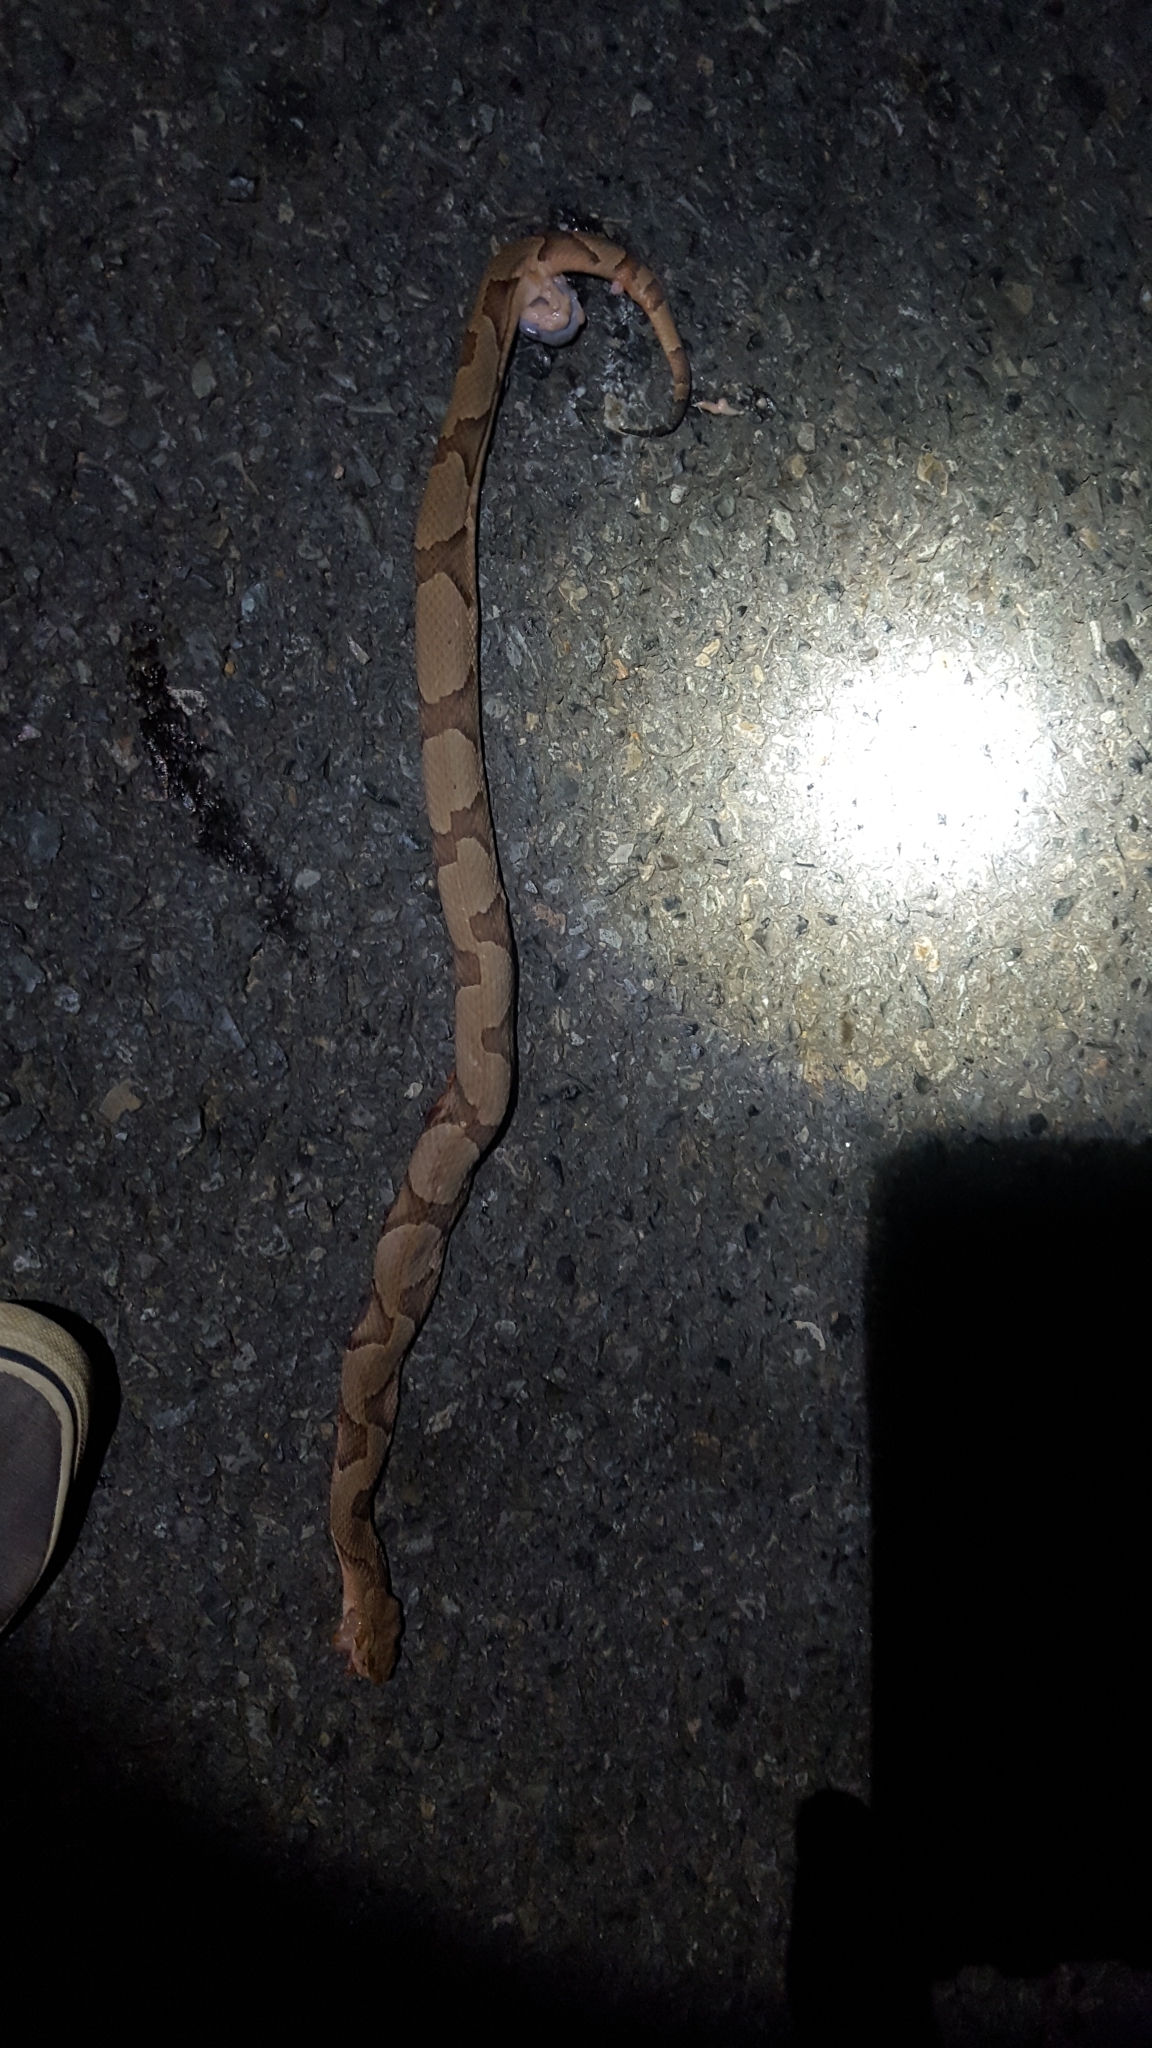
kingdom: Animalia
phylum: Chordata
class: Squamata
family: Viperidae
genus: Agkistrodon
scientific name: Agkistrodon contortrix
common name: Northern copperhead
